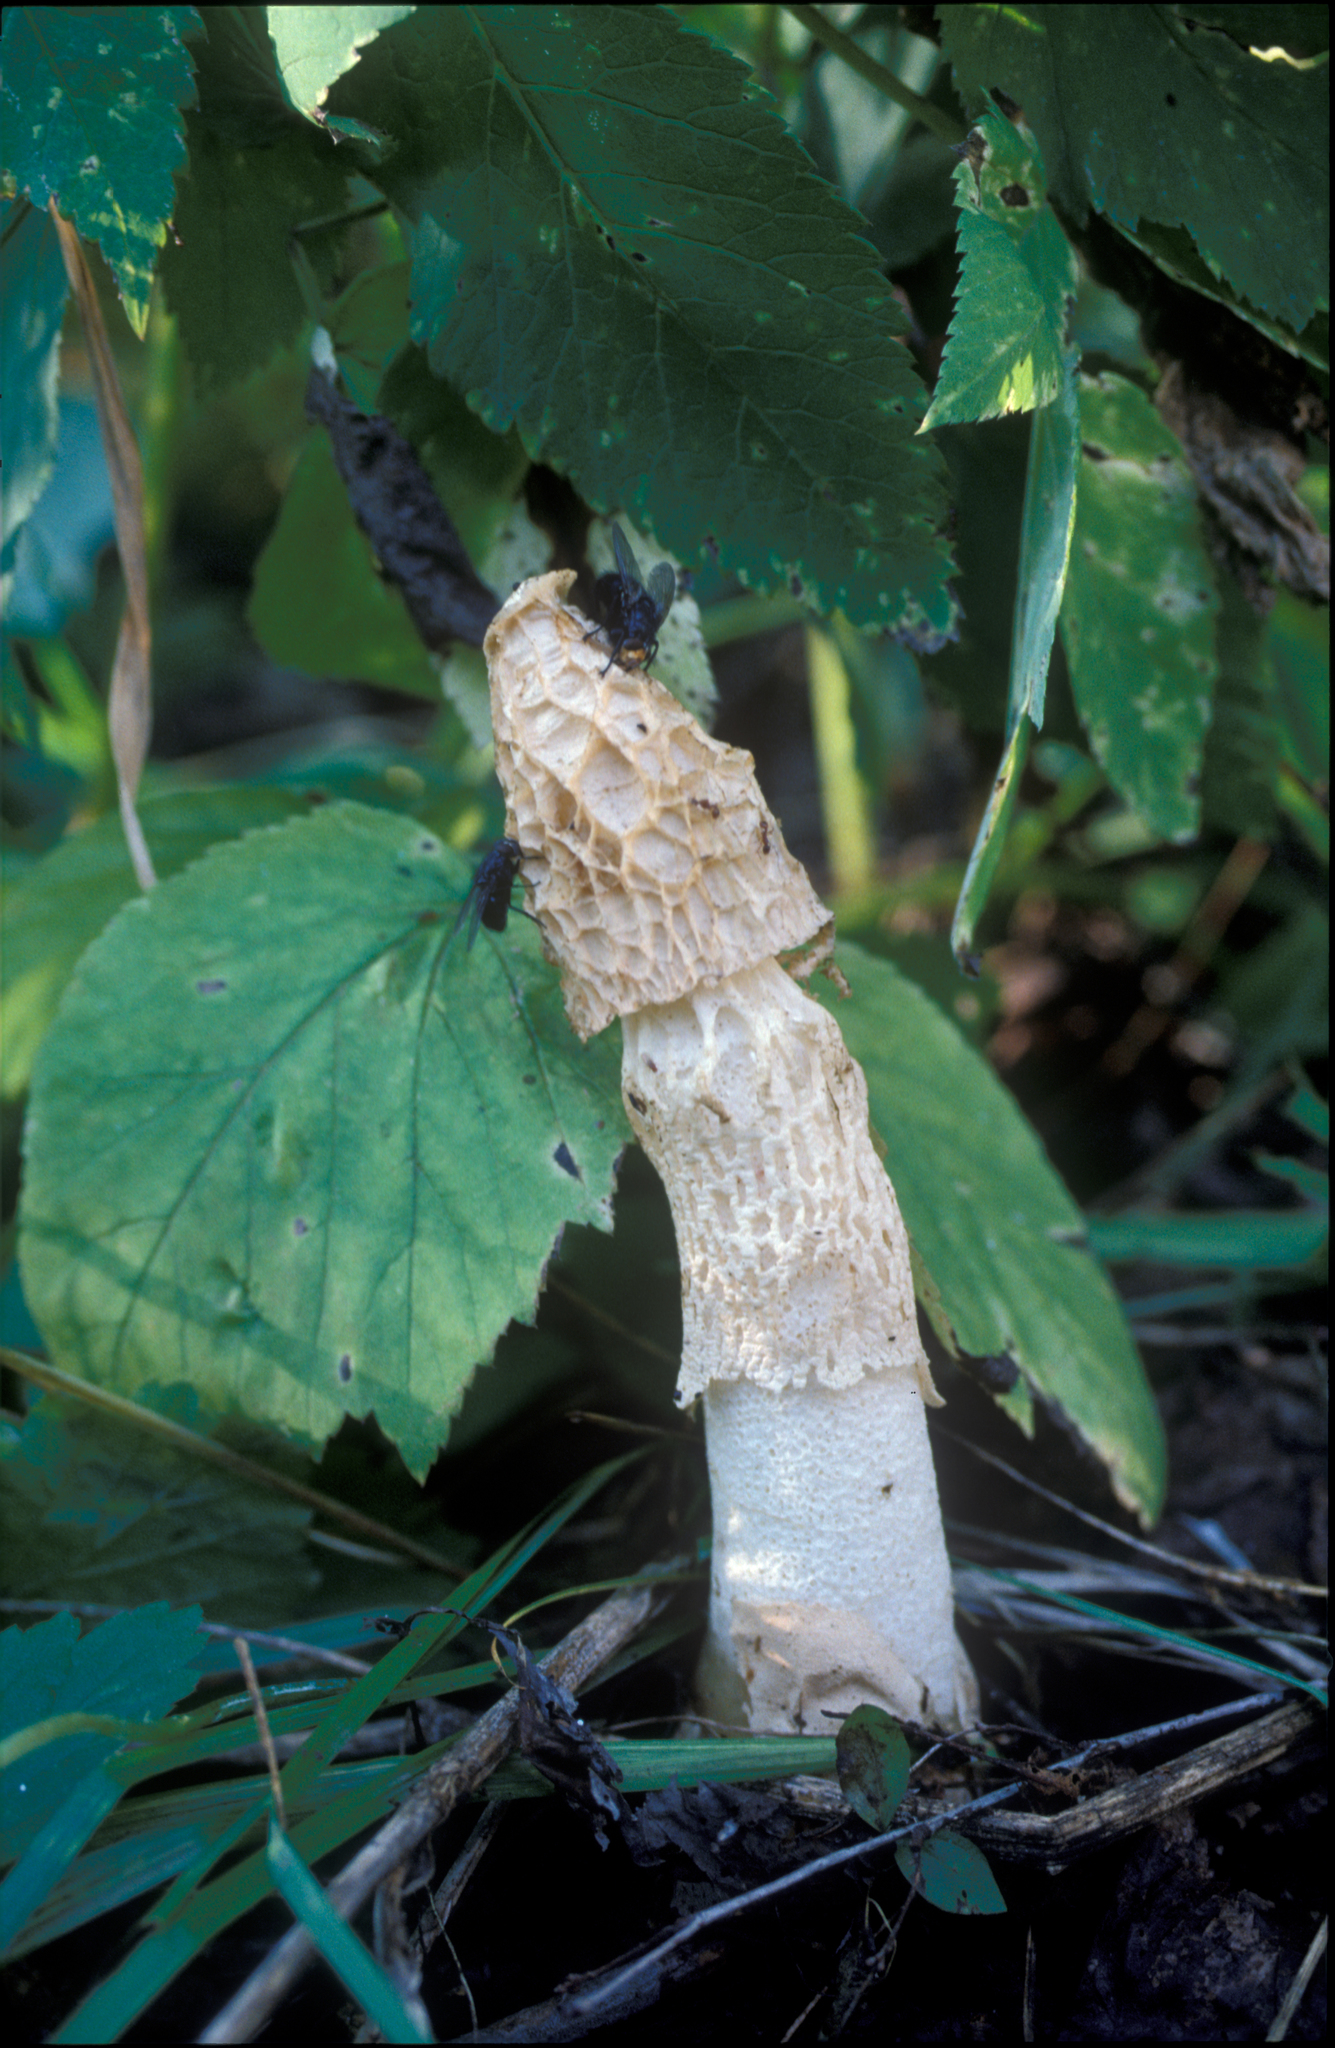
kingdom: Fungi
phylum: Basidiomycota
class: Agaricomycetes
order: Phallales
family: Phallaceae
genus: Phallus
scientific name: Phallus ultraduplicatus
